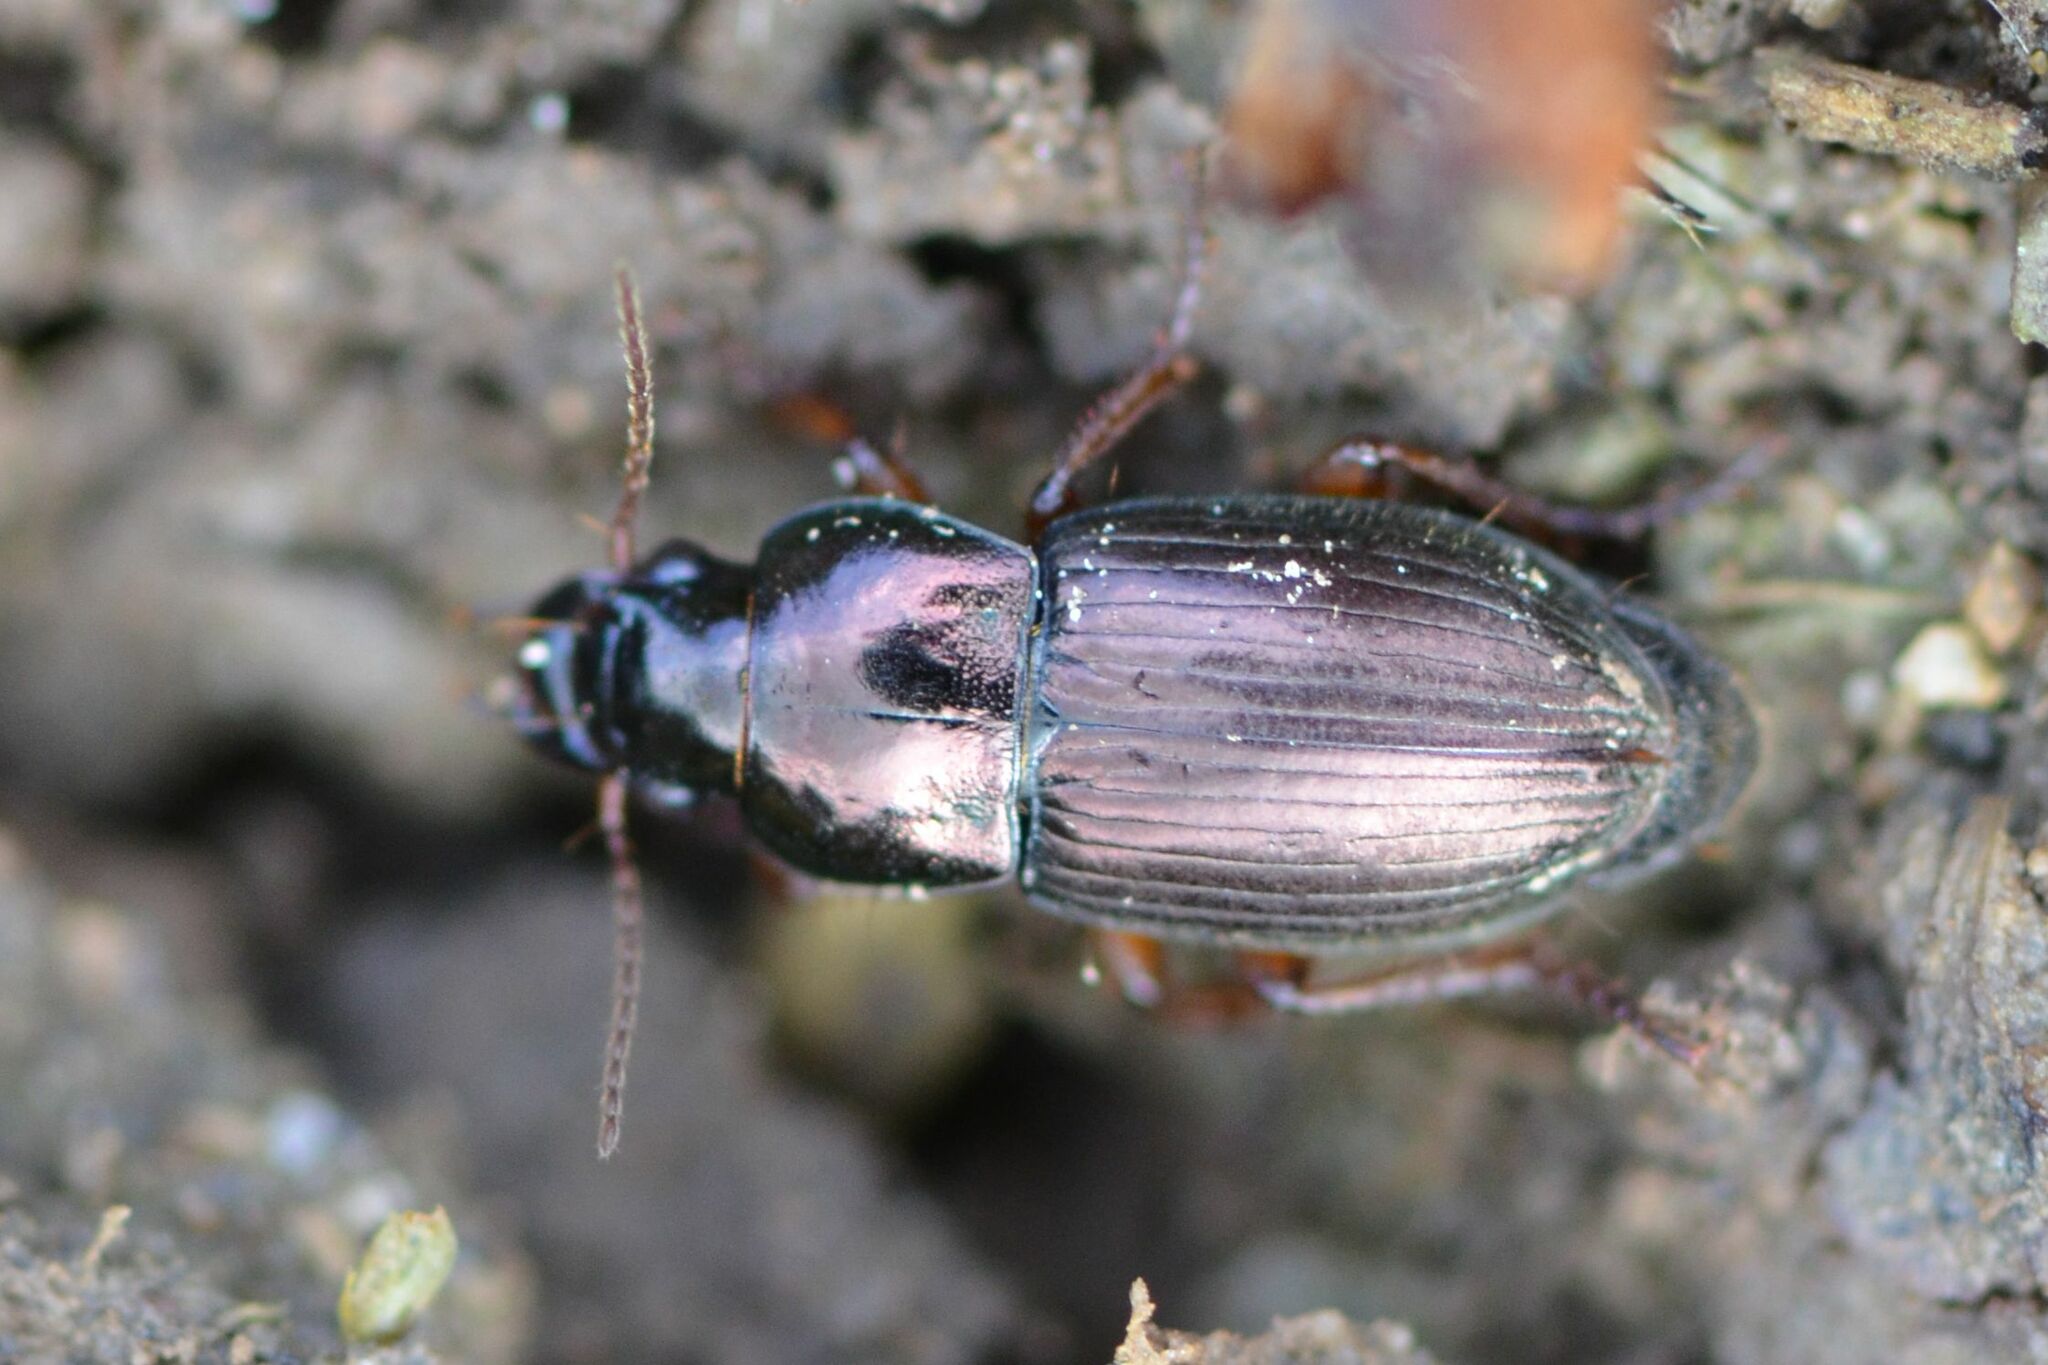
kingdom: Animalia
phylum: Arthropoda
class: Insecta
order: Coleoptera
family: Carabidae
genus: Harpalus
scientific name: Harpalus affinis
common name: Polychrome harp ground beetle
